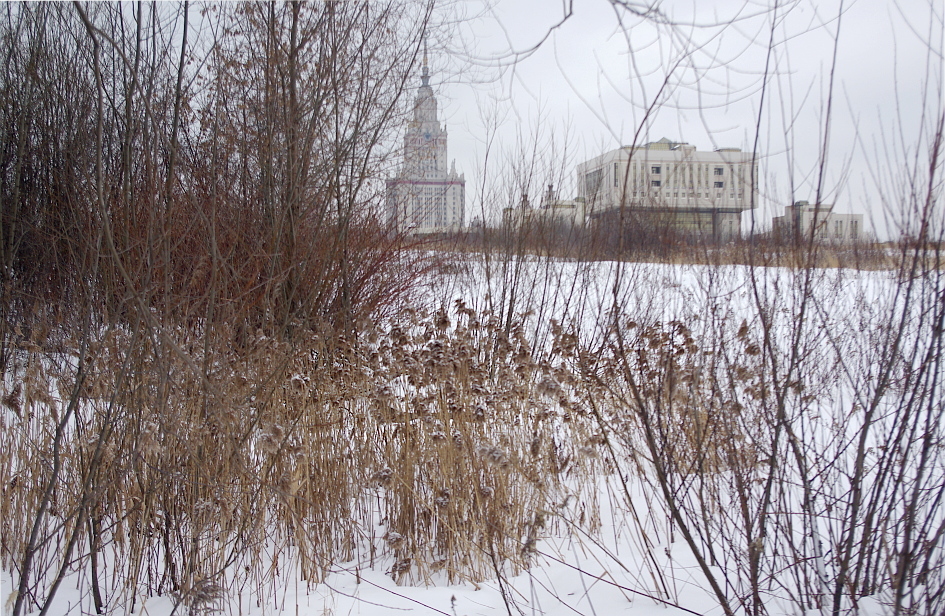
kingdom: Plantae
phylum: Tracheophyta
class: Liliopsida
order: Poales
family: Poaceae
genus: Phragmites
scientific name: Phragmites australis
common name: Common reed
